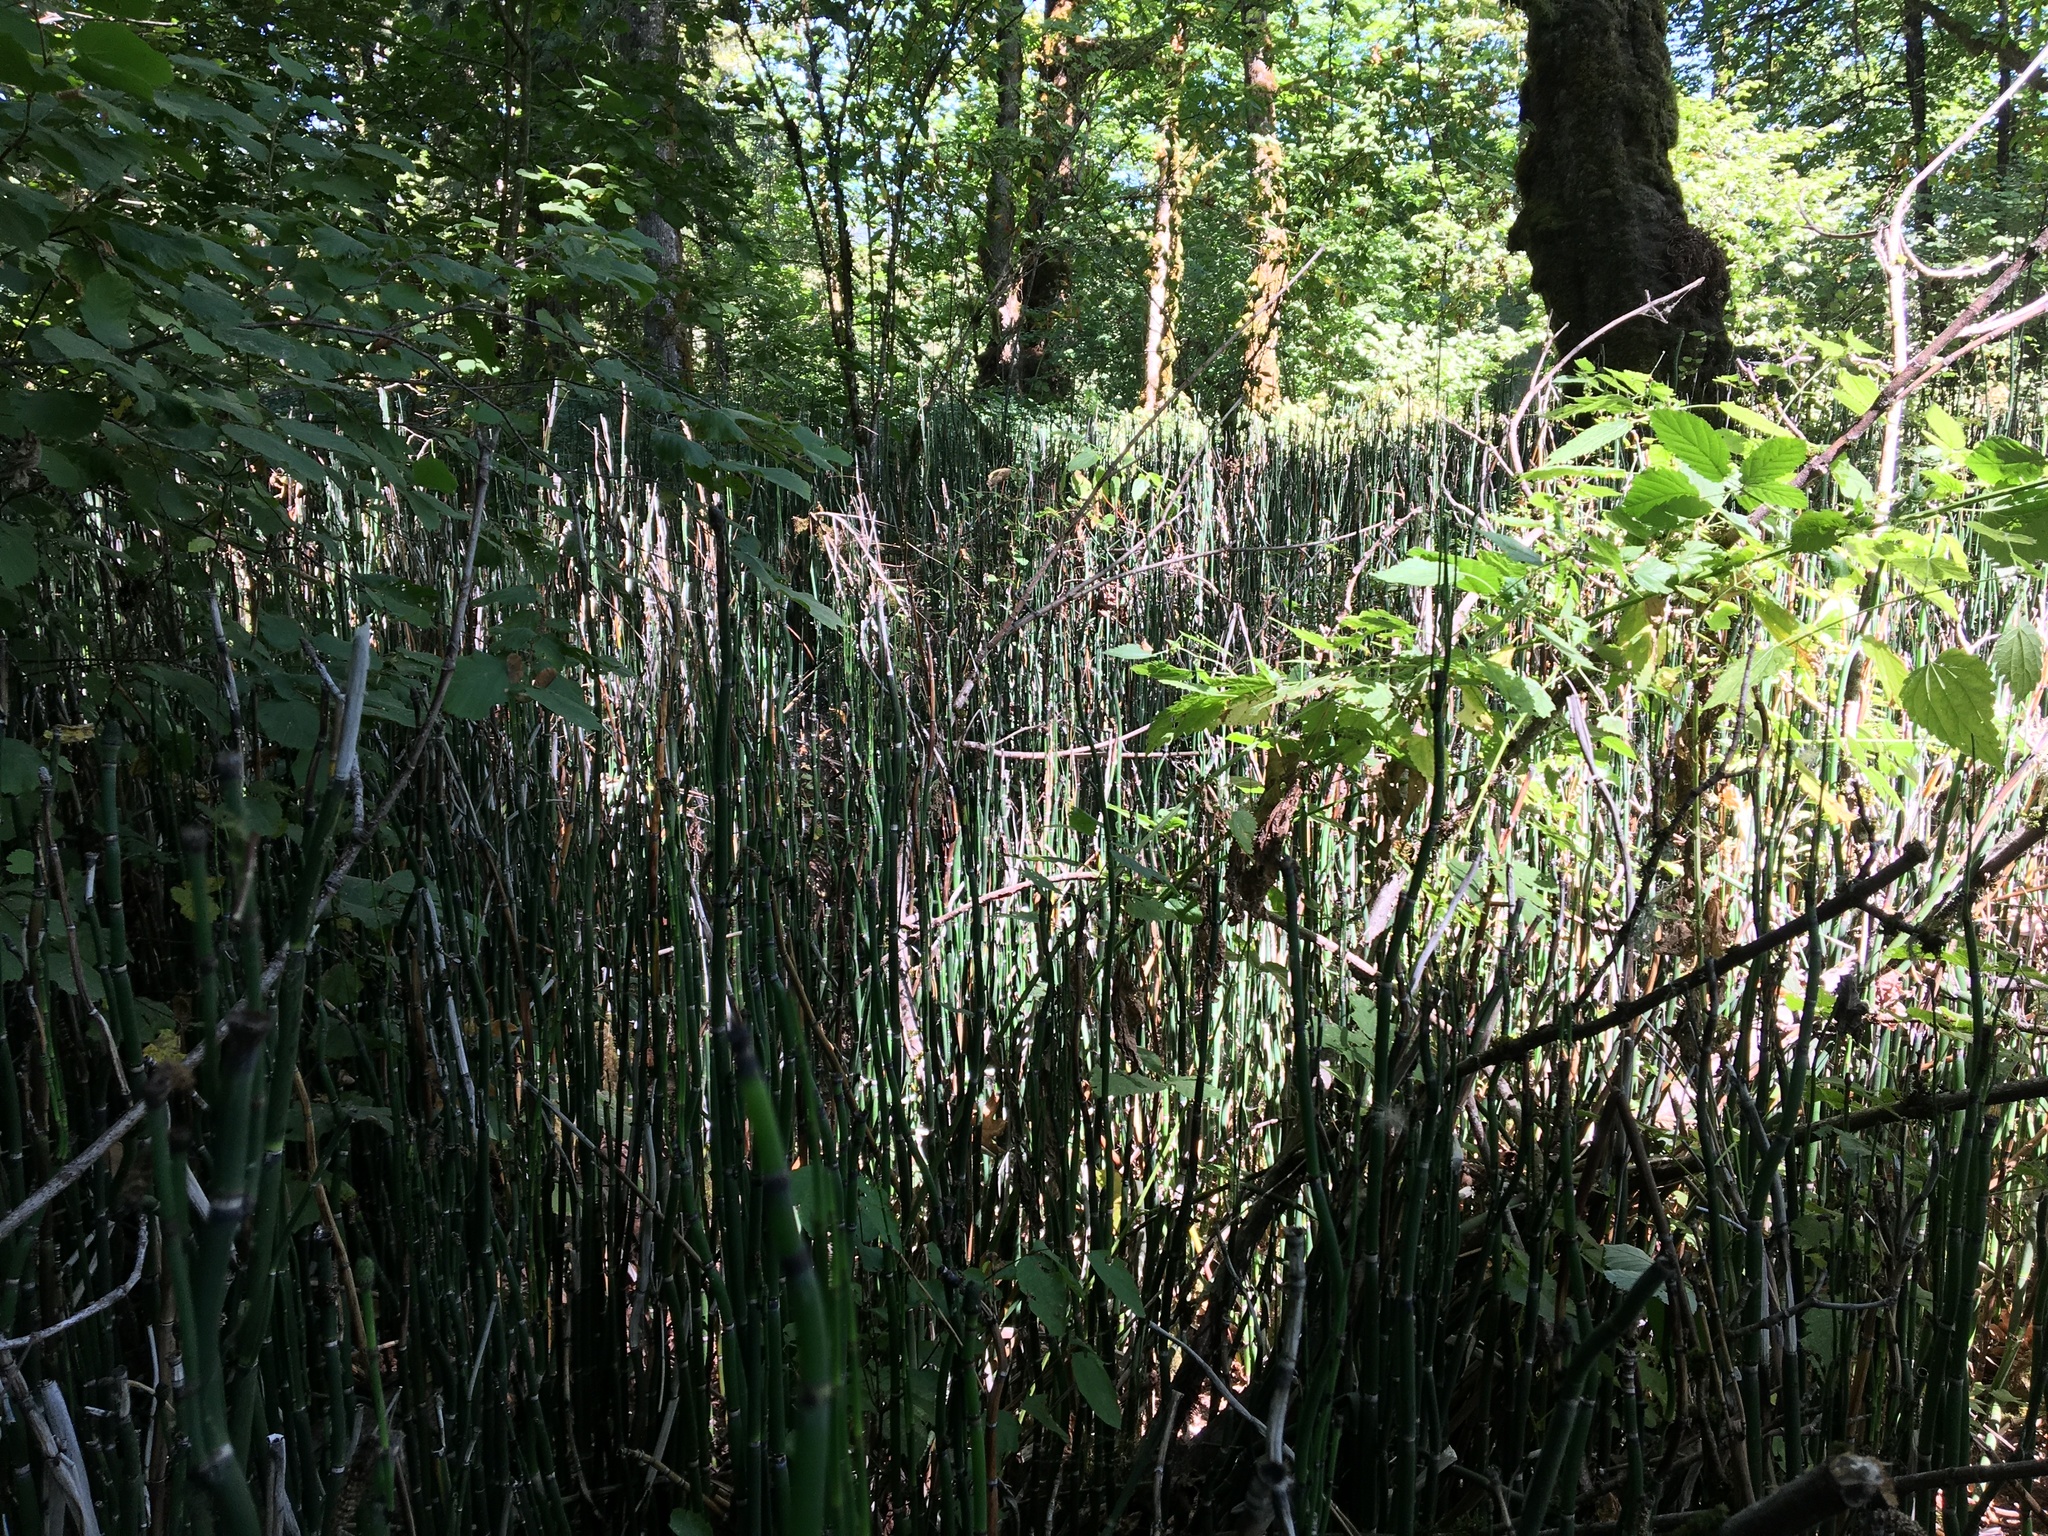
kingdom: Plantae
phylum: Tracheophyta
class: Polypodiopsida
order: Equisetales
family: Equisetaceae
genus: Equisetum
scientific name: Equisetum hyemale
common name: Rough horsetail
